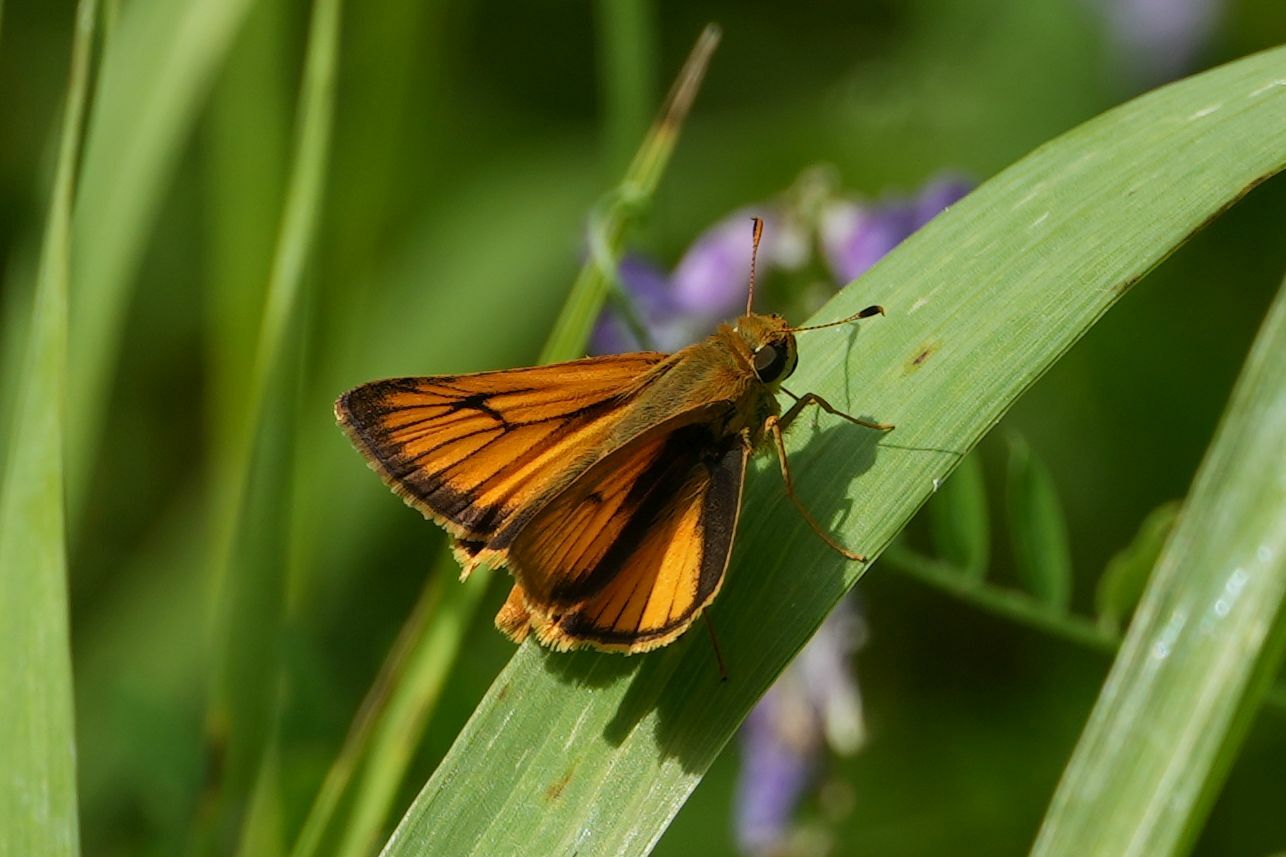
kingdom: Animalia
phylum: Arthropoda
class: Insecta
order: Lepidoptera
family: Hesperiidae
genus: Atrytone
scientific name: Atrytone delaware
